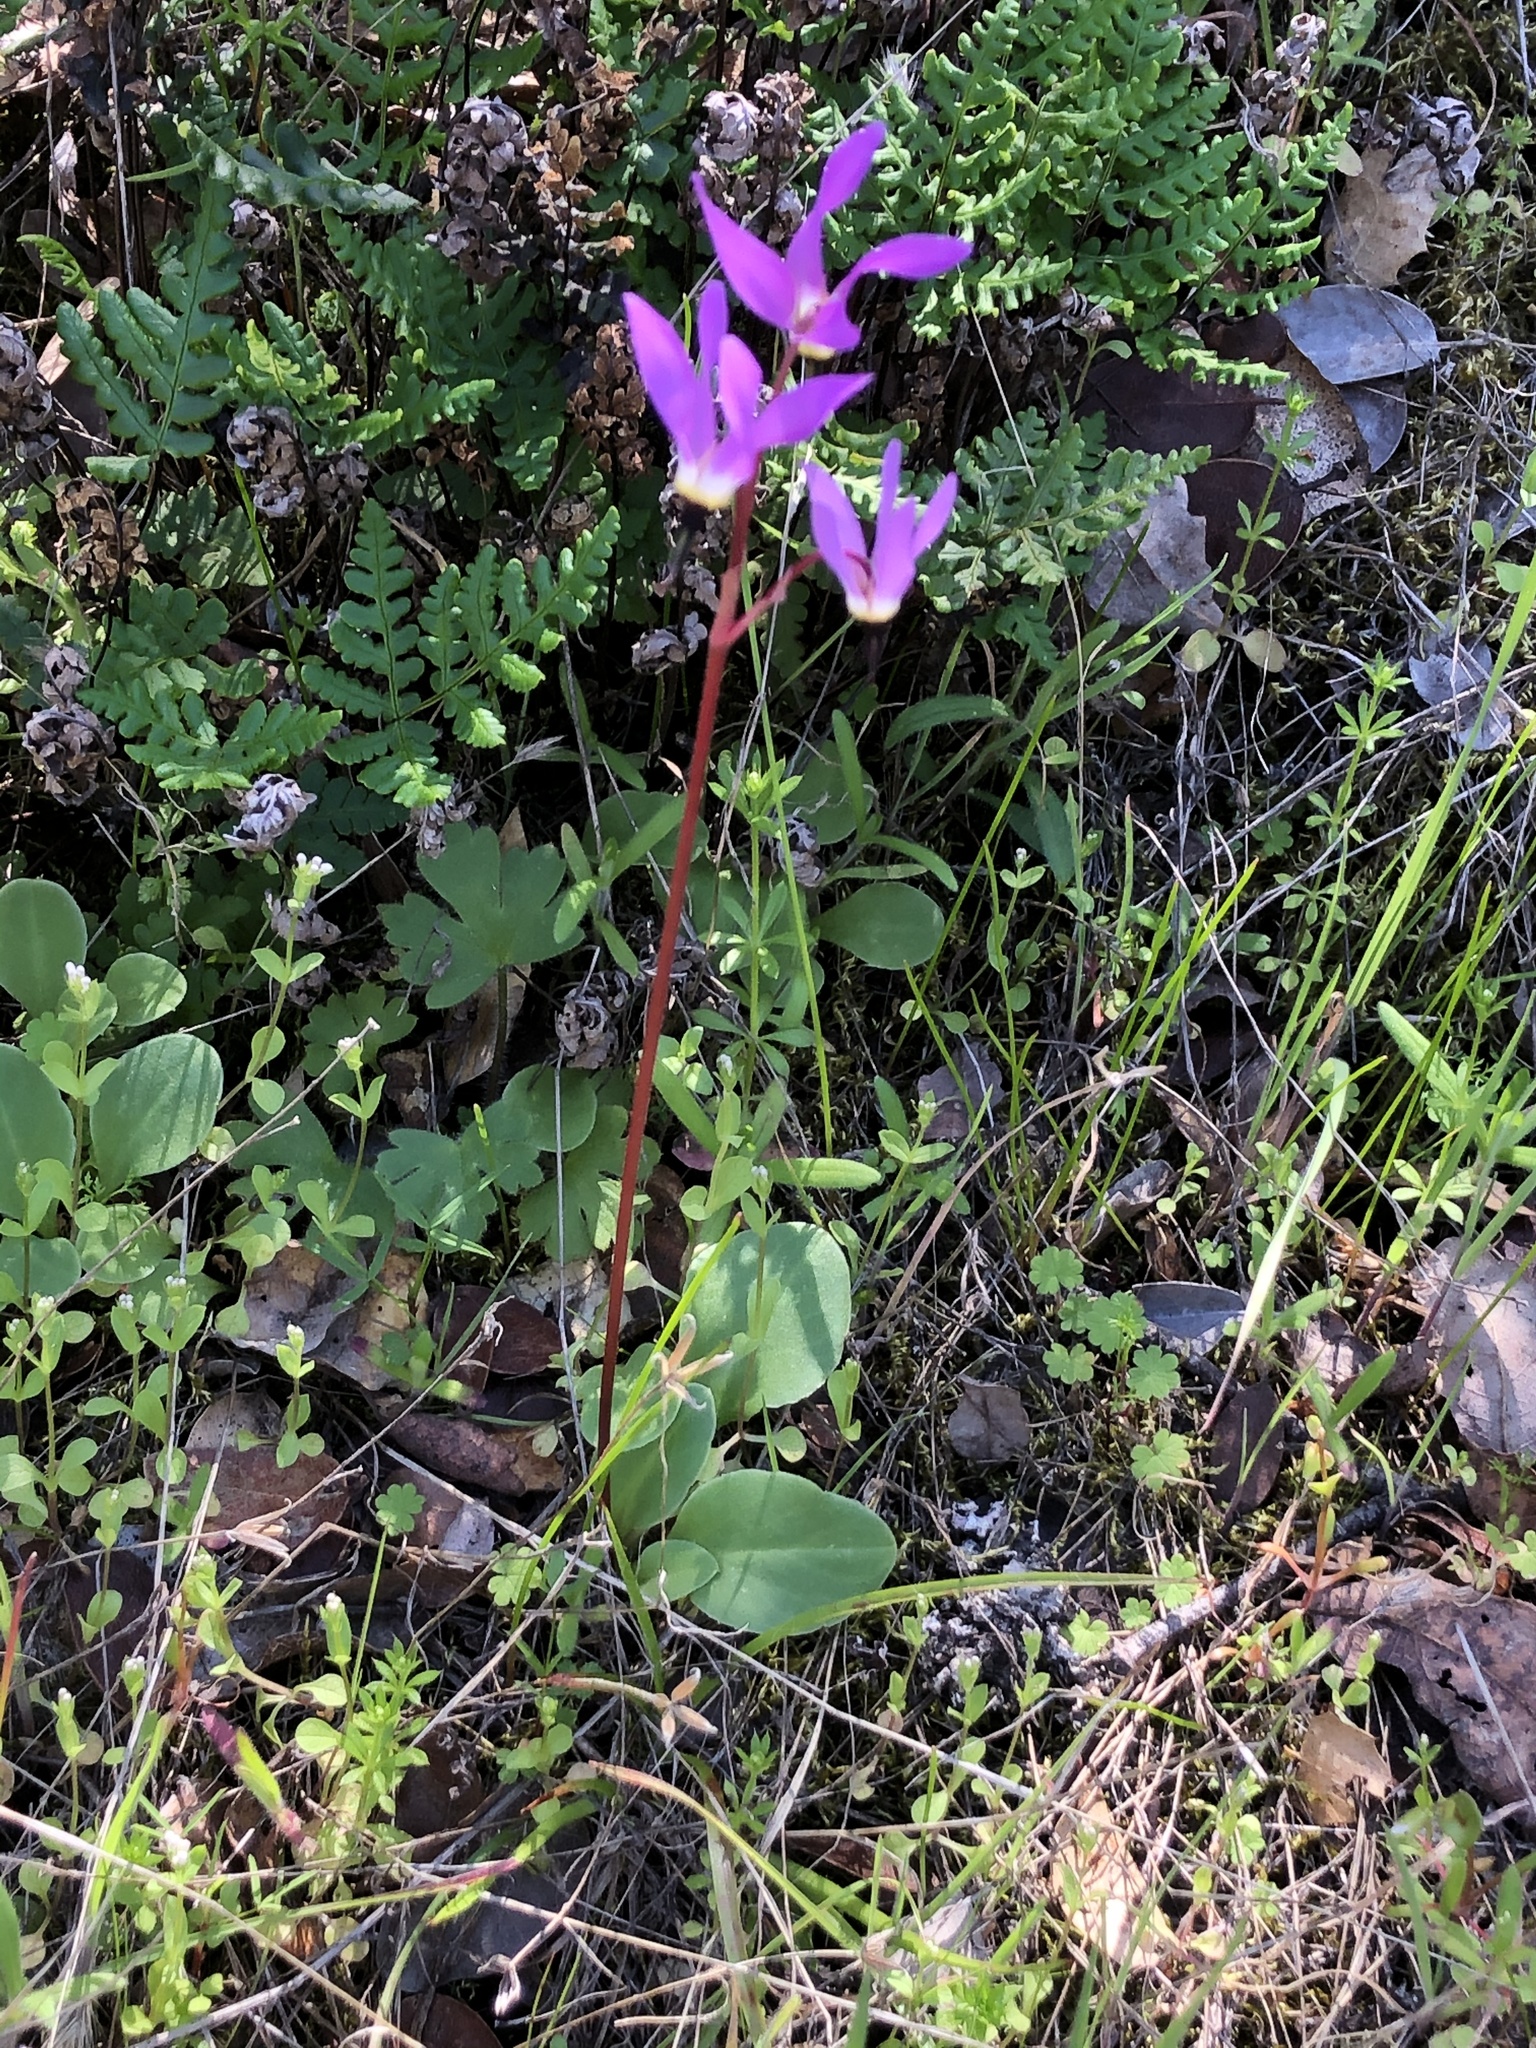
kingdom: Plantae
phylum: Tracheophyta
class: Magnoliopsida
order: Ericales
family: Primulaceae
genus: Dodecatheon
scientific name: Dodecatheon hendersonii
